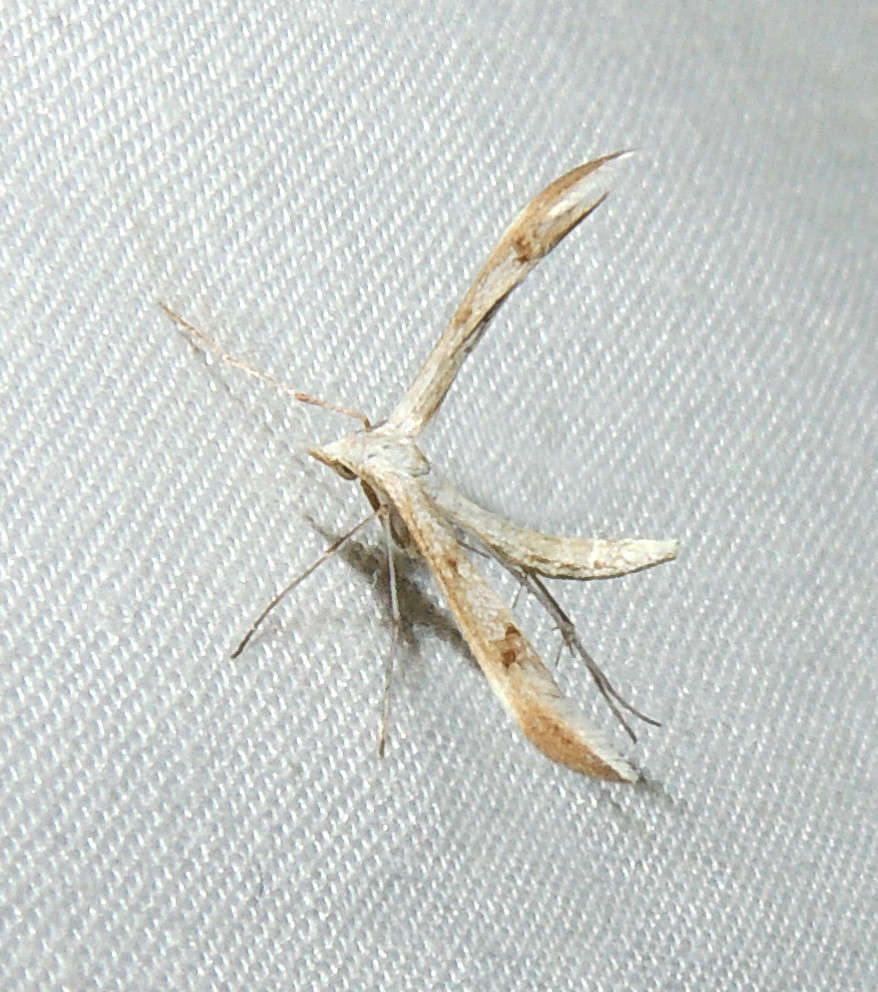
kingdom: Animalia
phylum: Arthropoda
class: Insecta
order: Lepidoptera
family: Pterophoridae
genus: Platyptilia
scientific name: Platyptilia celidotus
